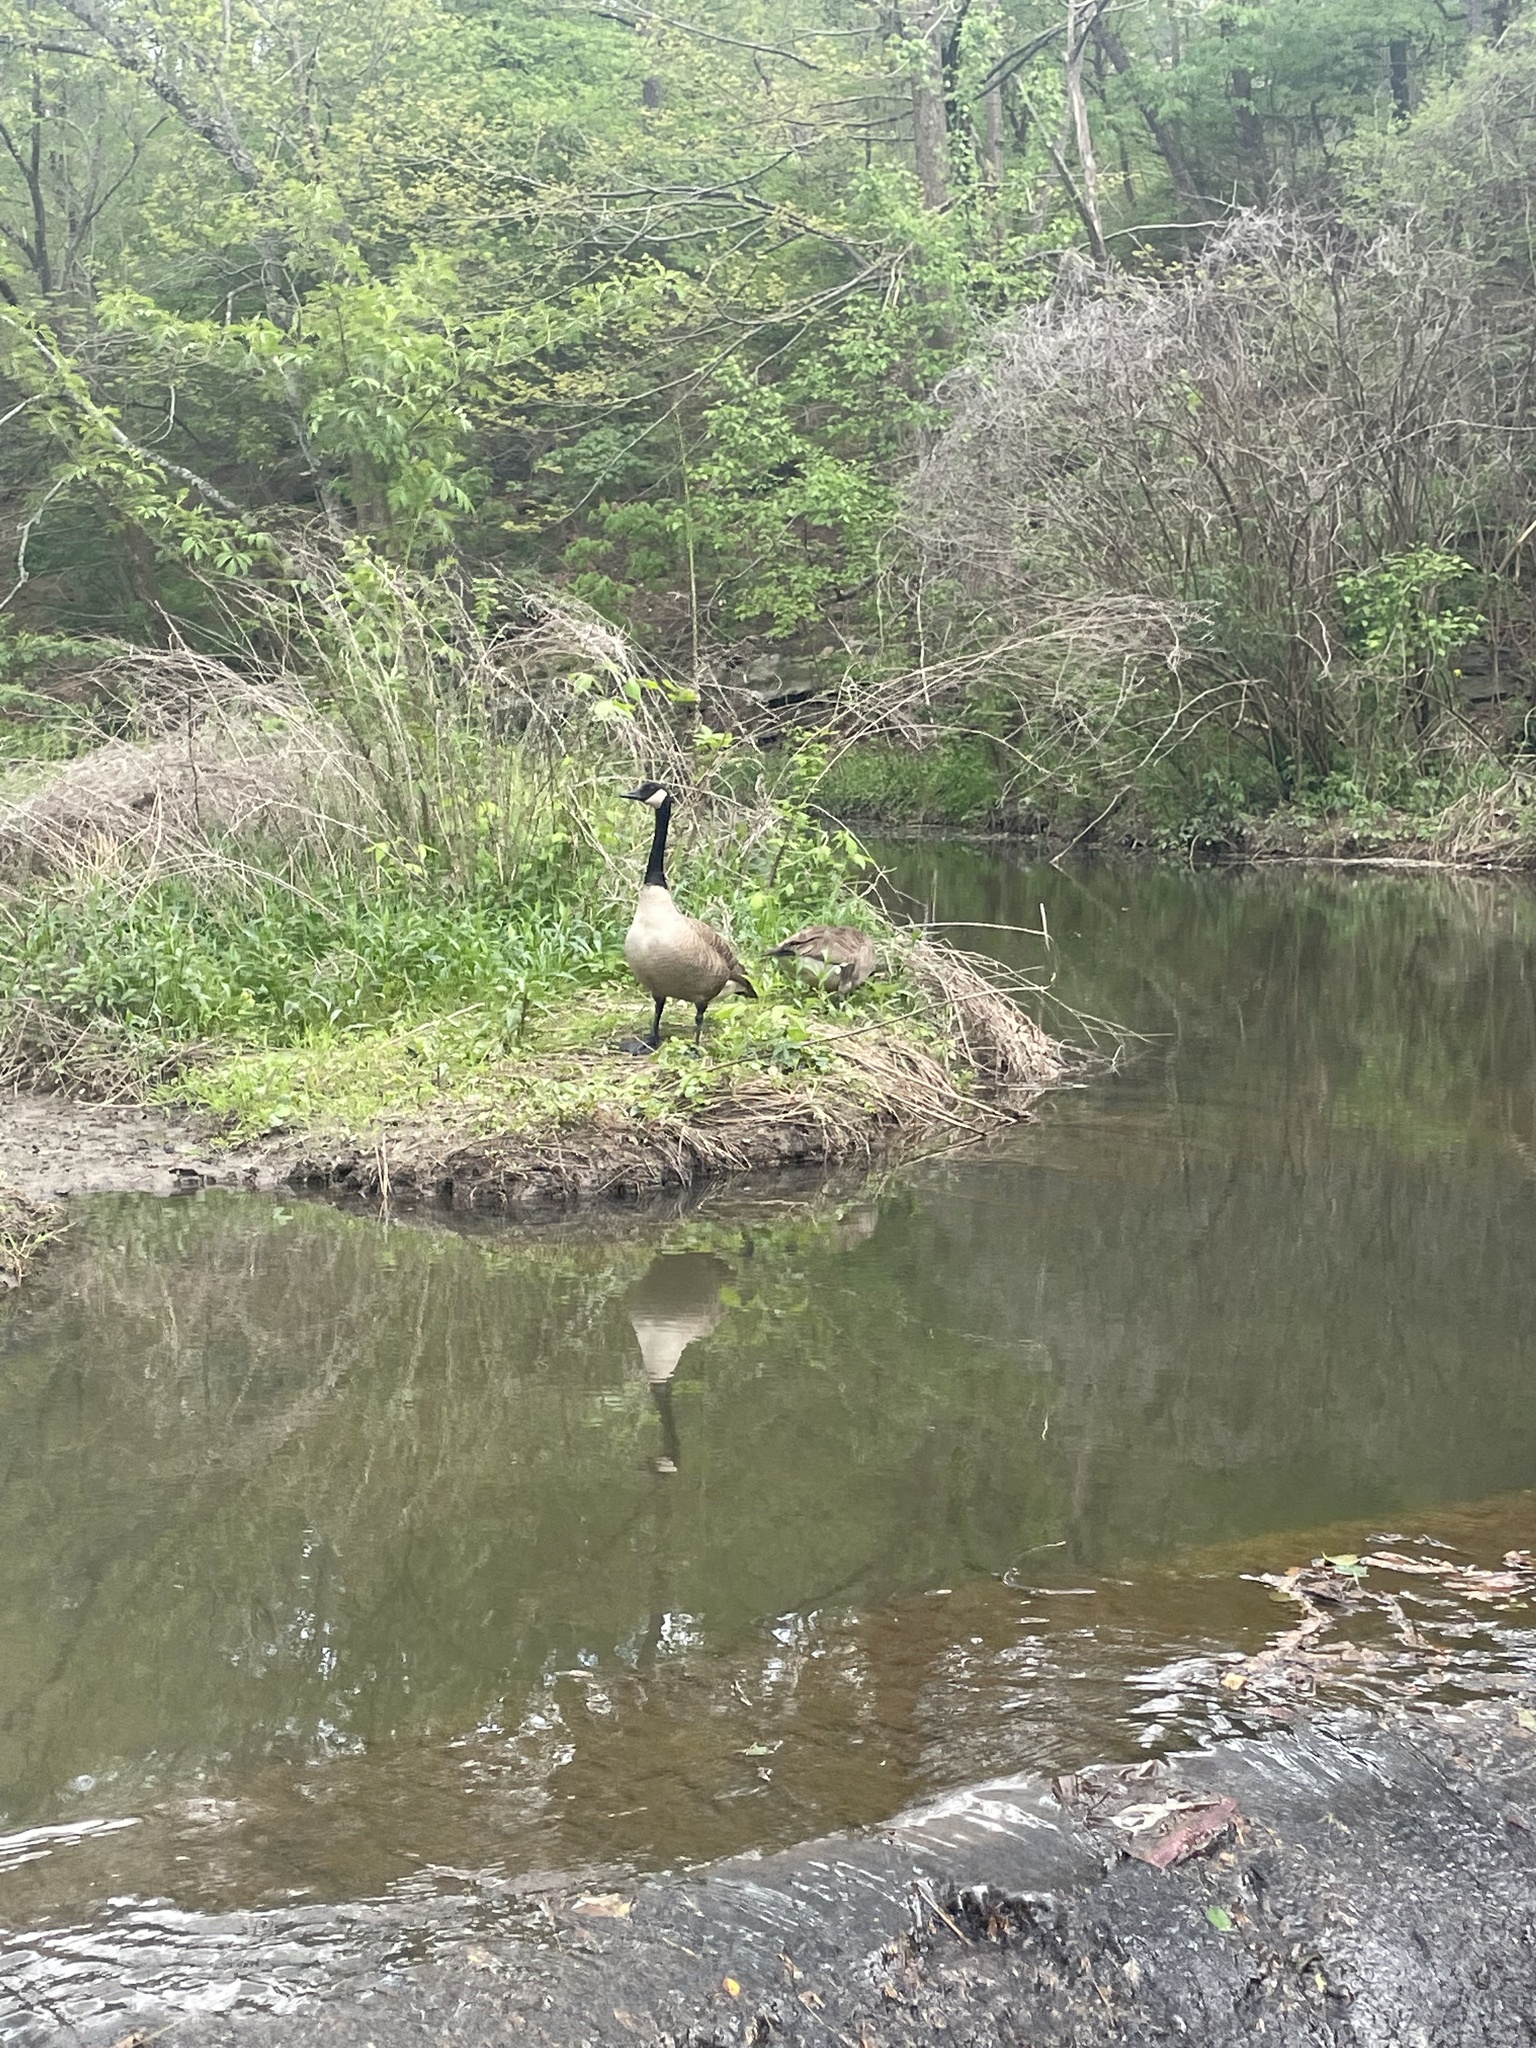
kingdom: Animalia
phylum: Chordata
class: Aves
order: Anseriformes
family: Anatidae
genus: Branta
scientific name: Branta canadensis
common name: Canada goose
